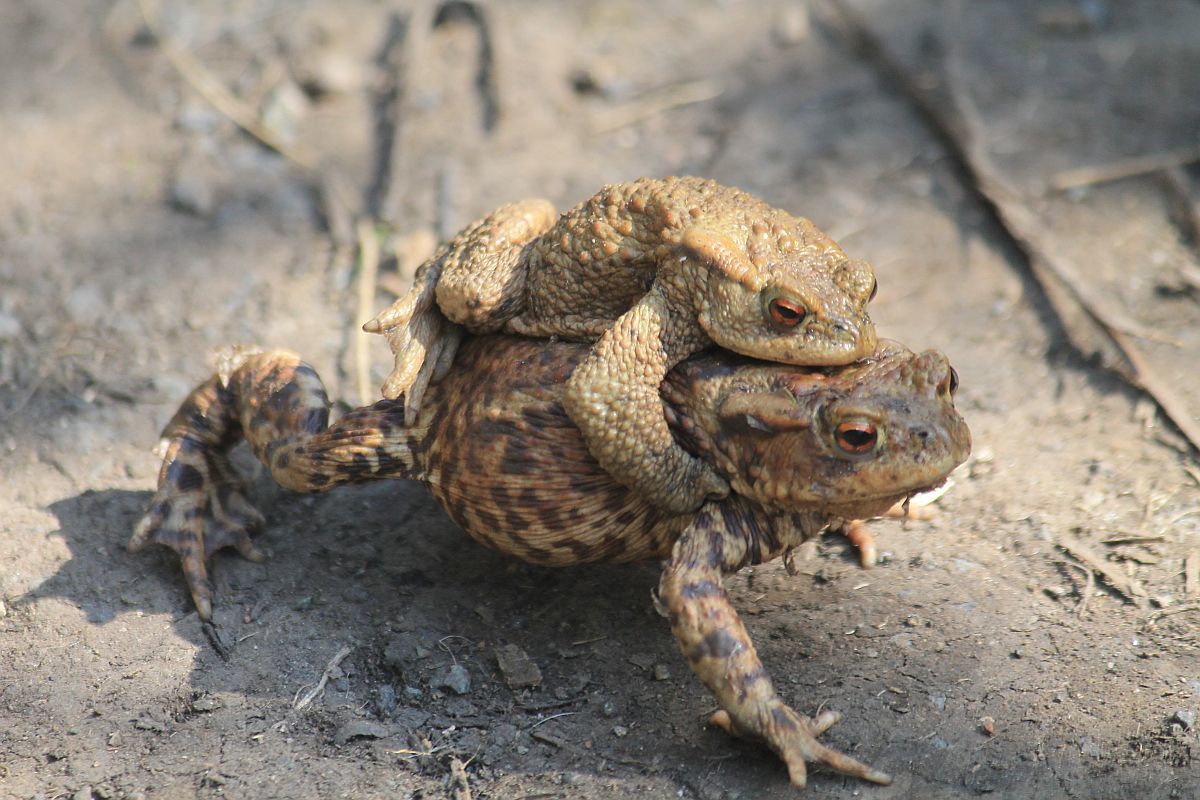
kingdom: Animalia
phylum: Chordata
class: Amphibia
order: Anura
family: Bufonidae
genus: Bufo
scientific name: Bufo bufo
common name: Common toad
